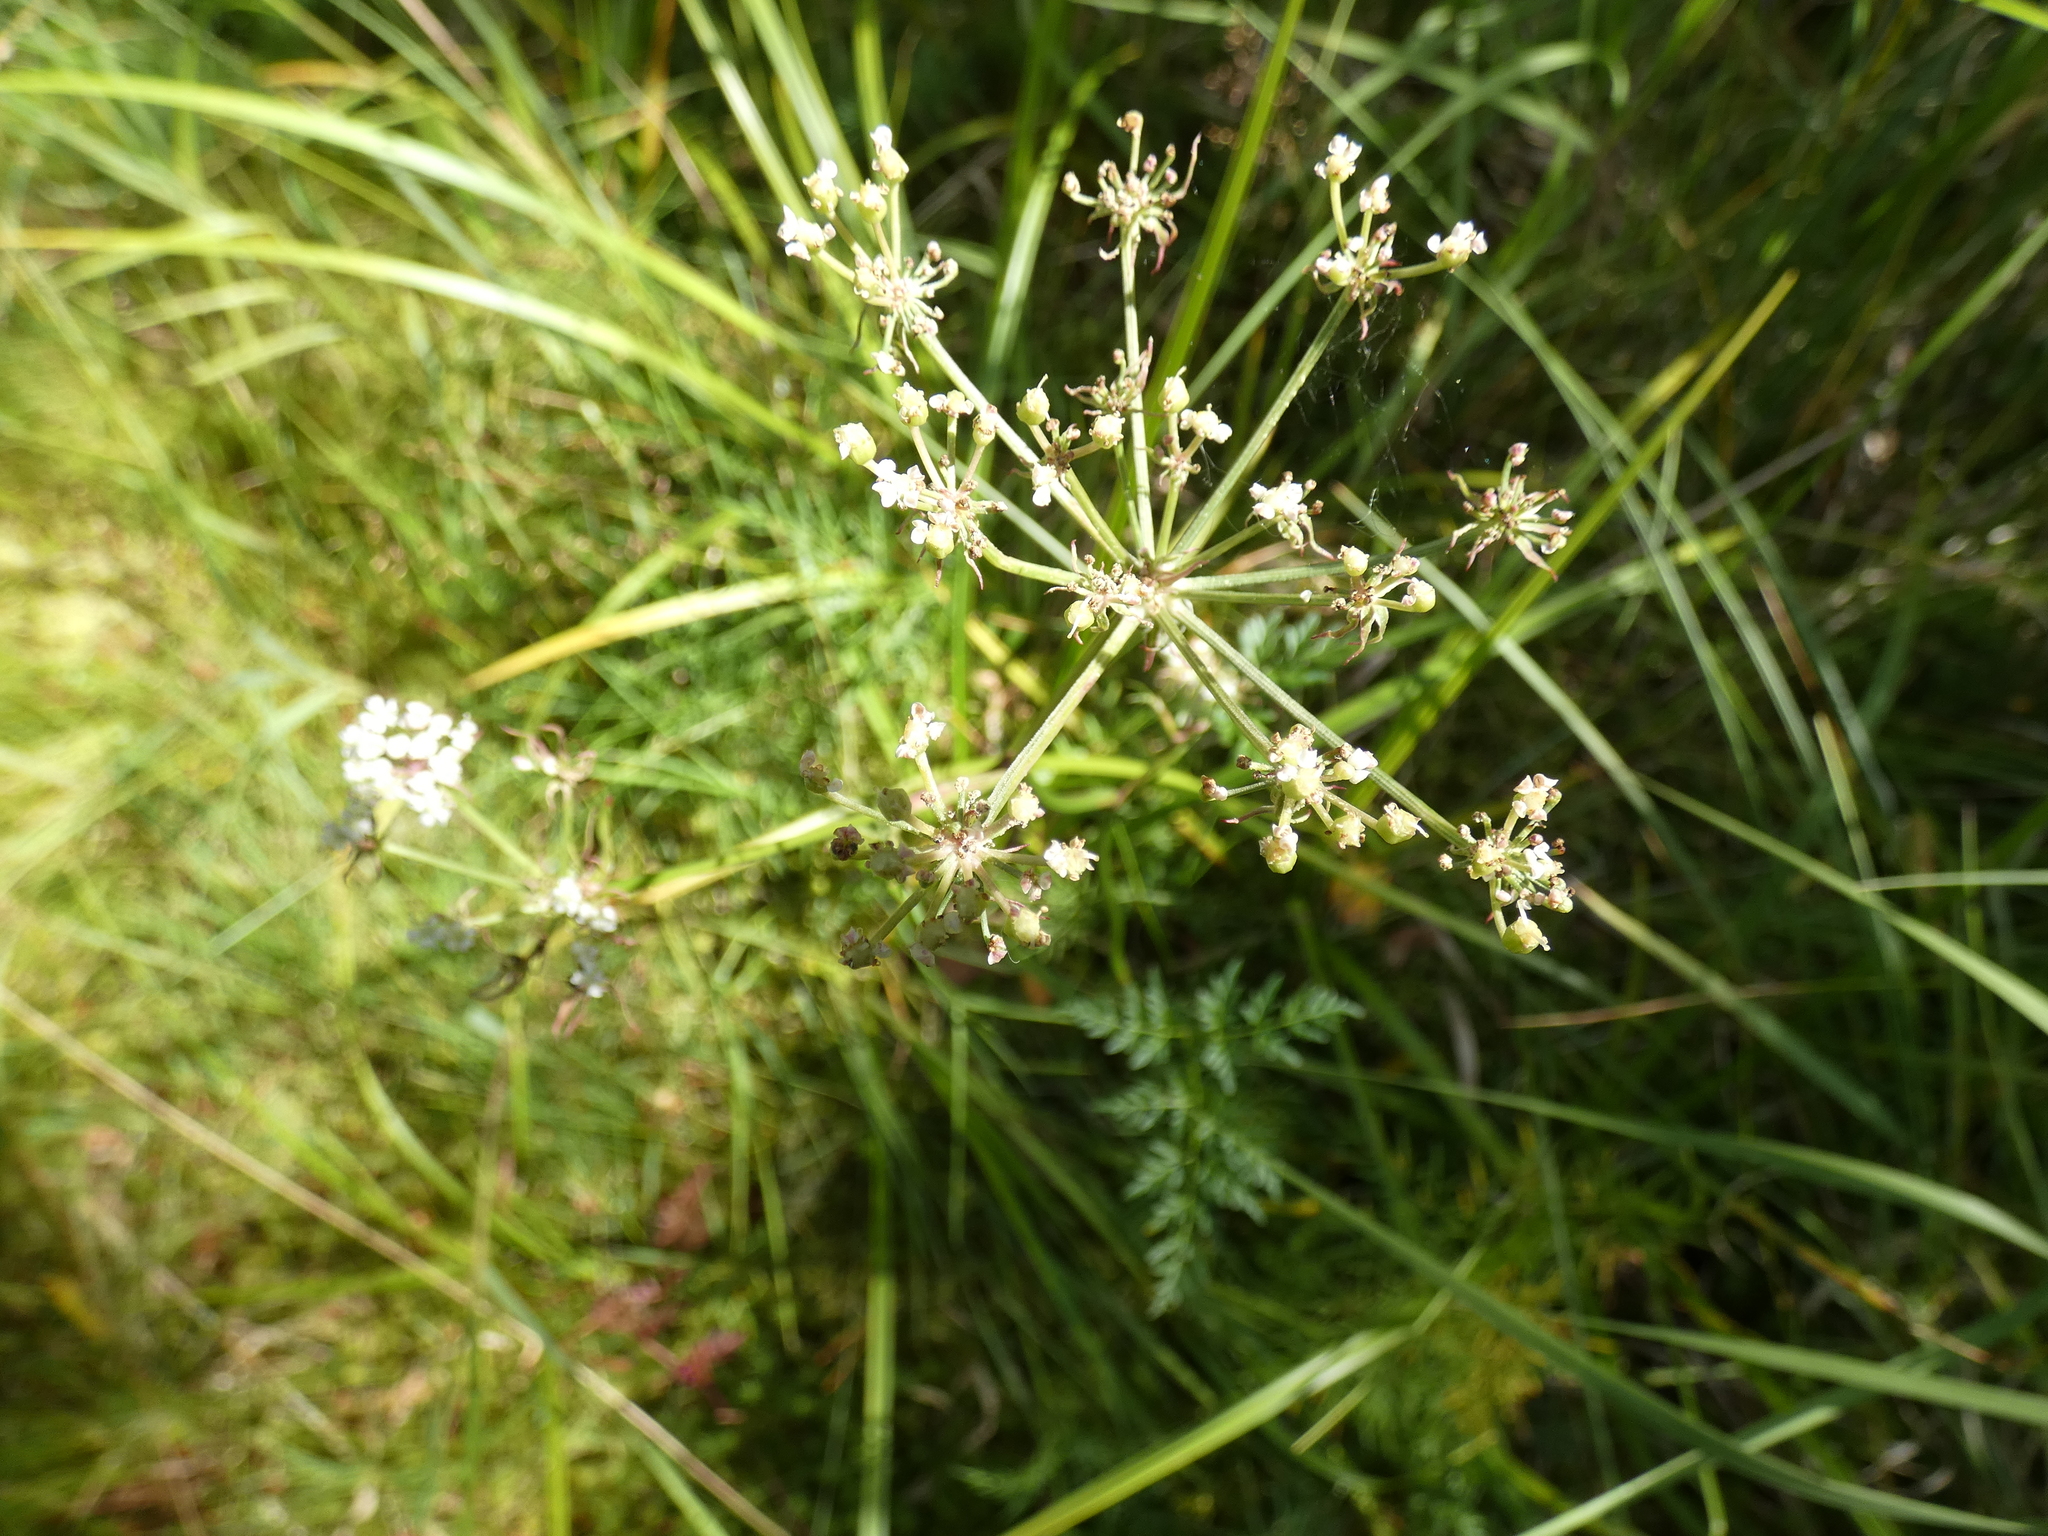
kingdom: Plantae
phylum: Tracheophyta
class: Magnoliopsida
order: Apiales
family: Apiaceae
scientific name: Apiaceae
